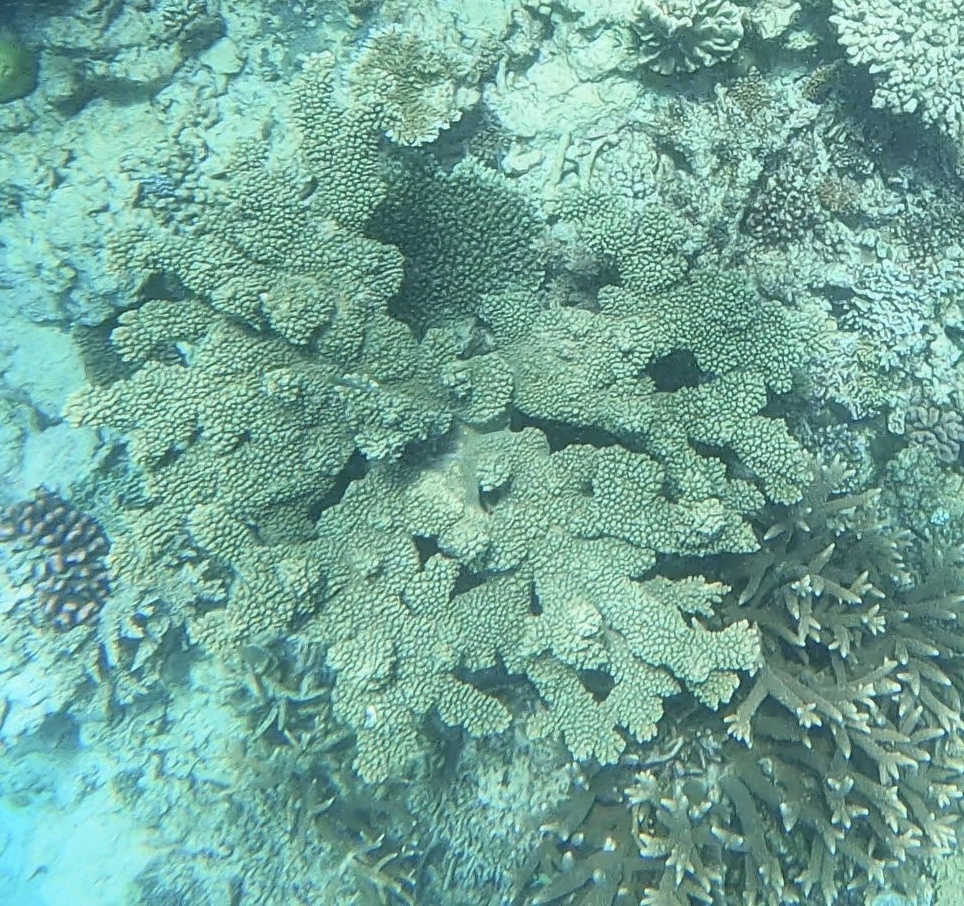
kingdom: Animalia
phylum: Cnidaria
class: Anthozoa
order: Scleractinia
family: Acroporidae
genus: Acropora
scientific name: Acropora florida
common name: Branch coral
